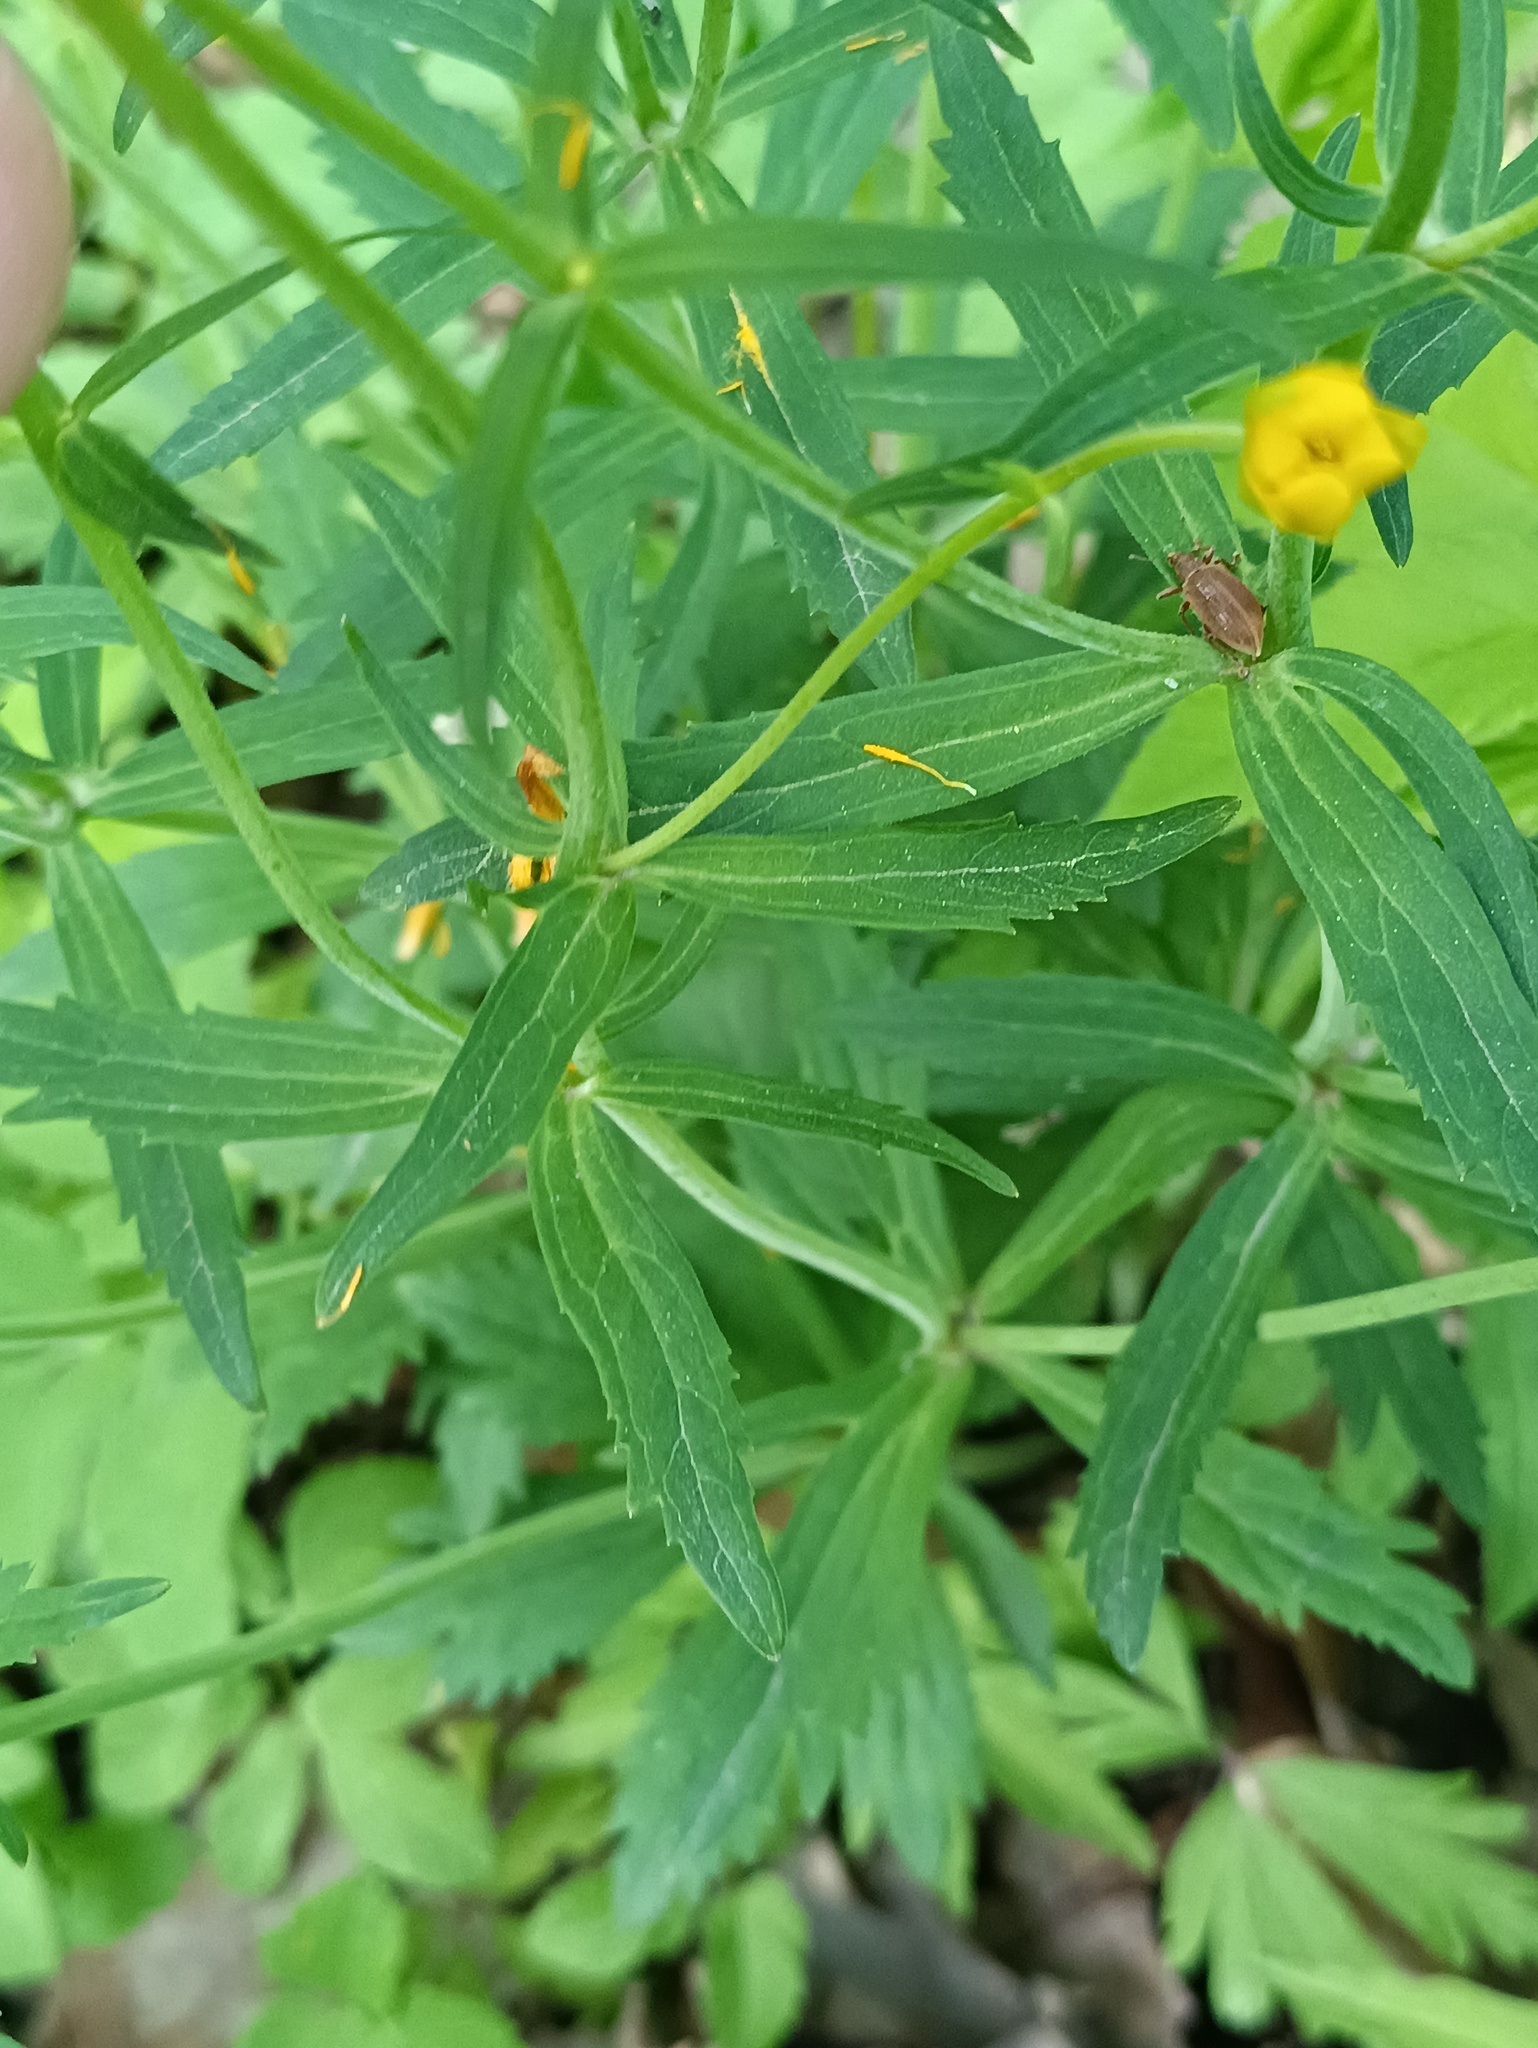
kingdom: Plantae
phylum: Tracheophyta
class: Magnoliopsida
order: Ranunculales
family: Ranunculaceae
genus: Ranunculus
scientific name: Ranunculus cassubicus
